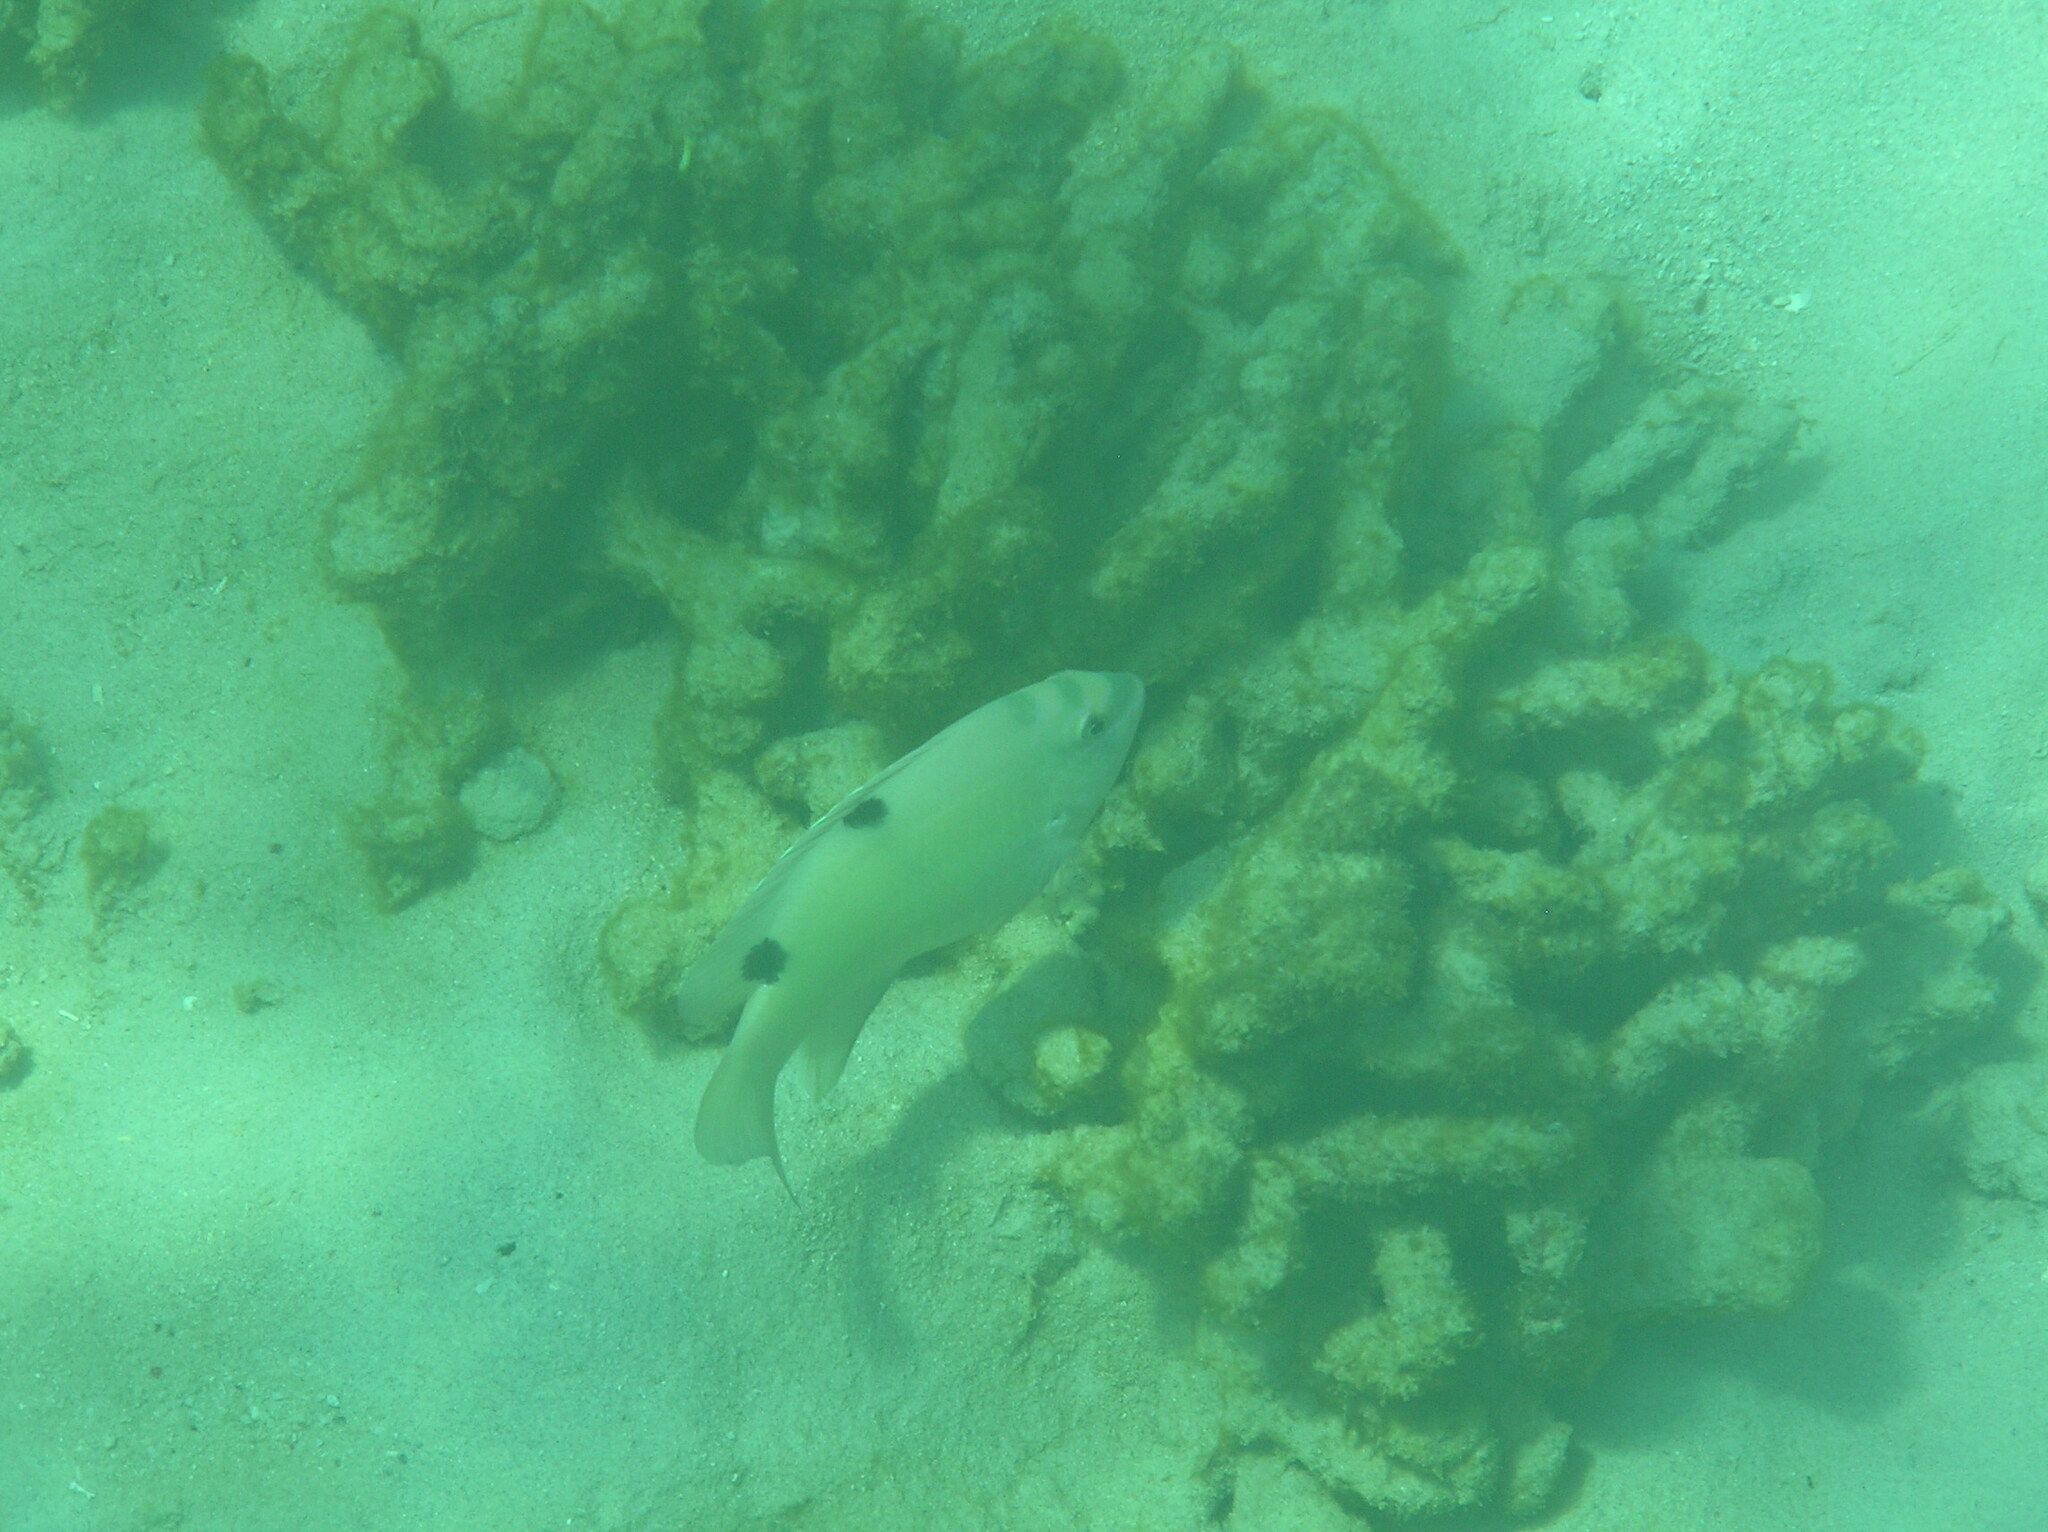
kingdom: Animalia
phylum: Chordata
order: Perciformes
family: Pomacentridae
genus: Dischistodus
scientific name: Dischistodus perspicillatus
